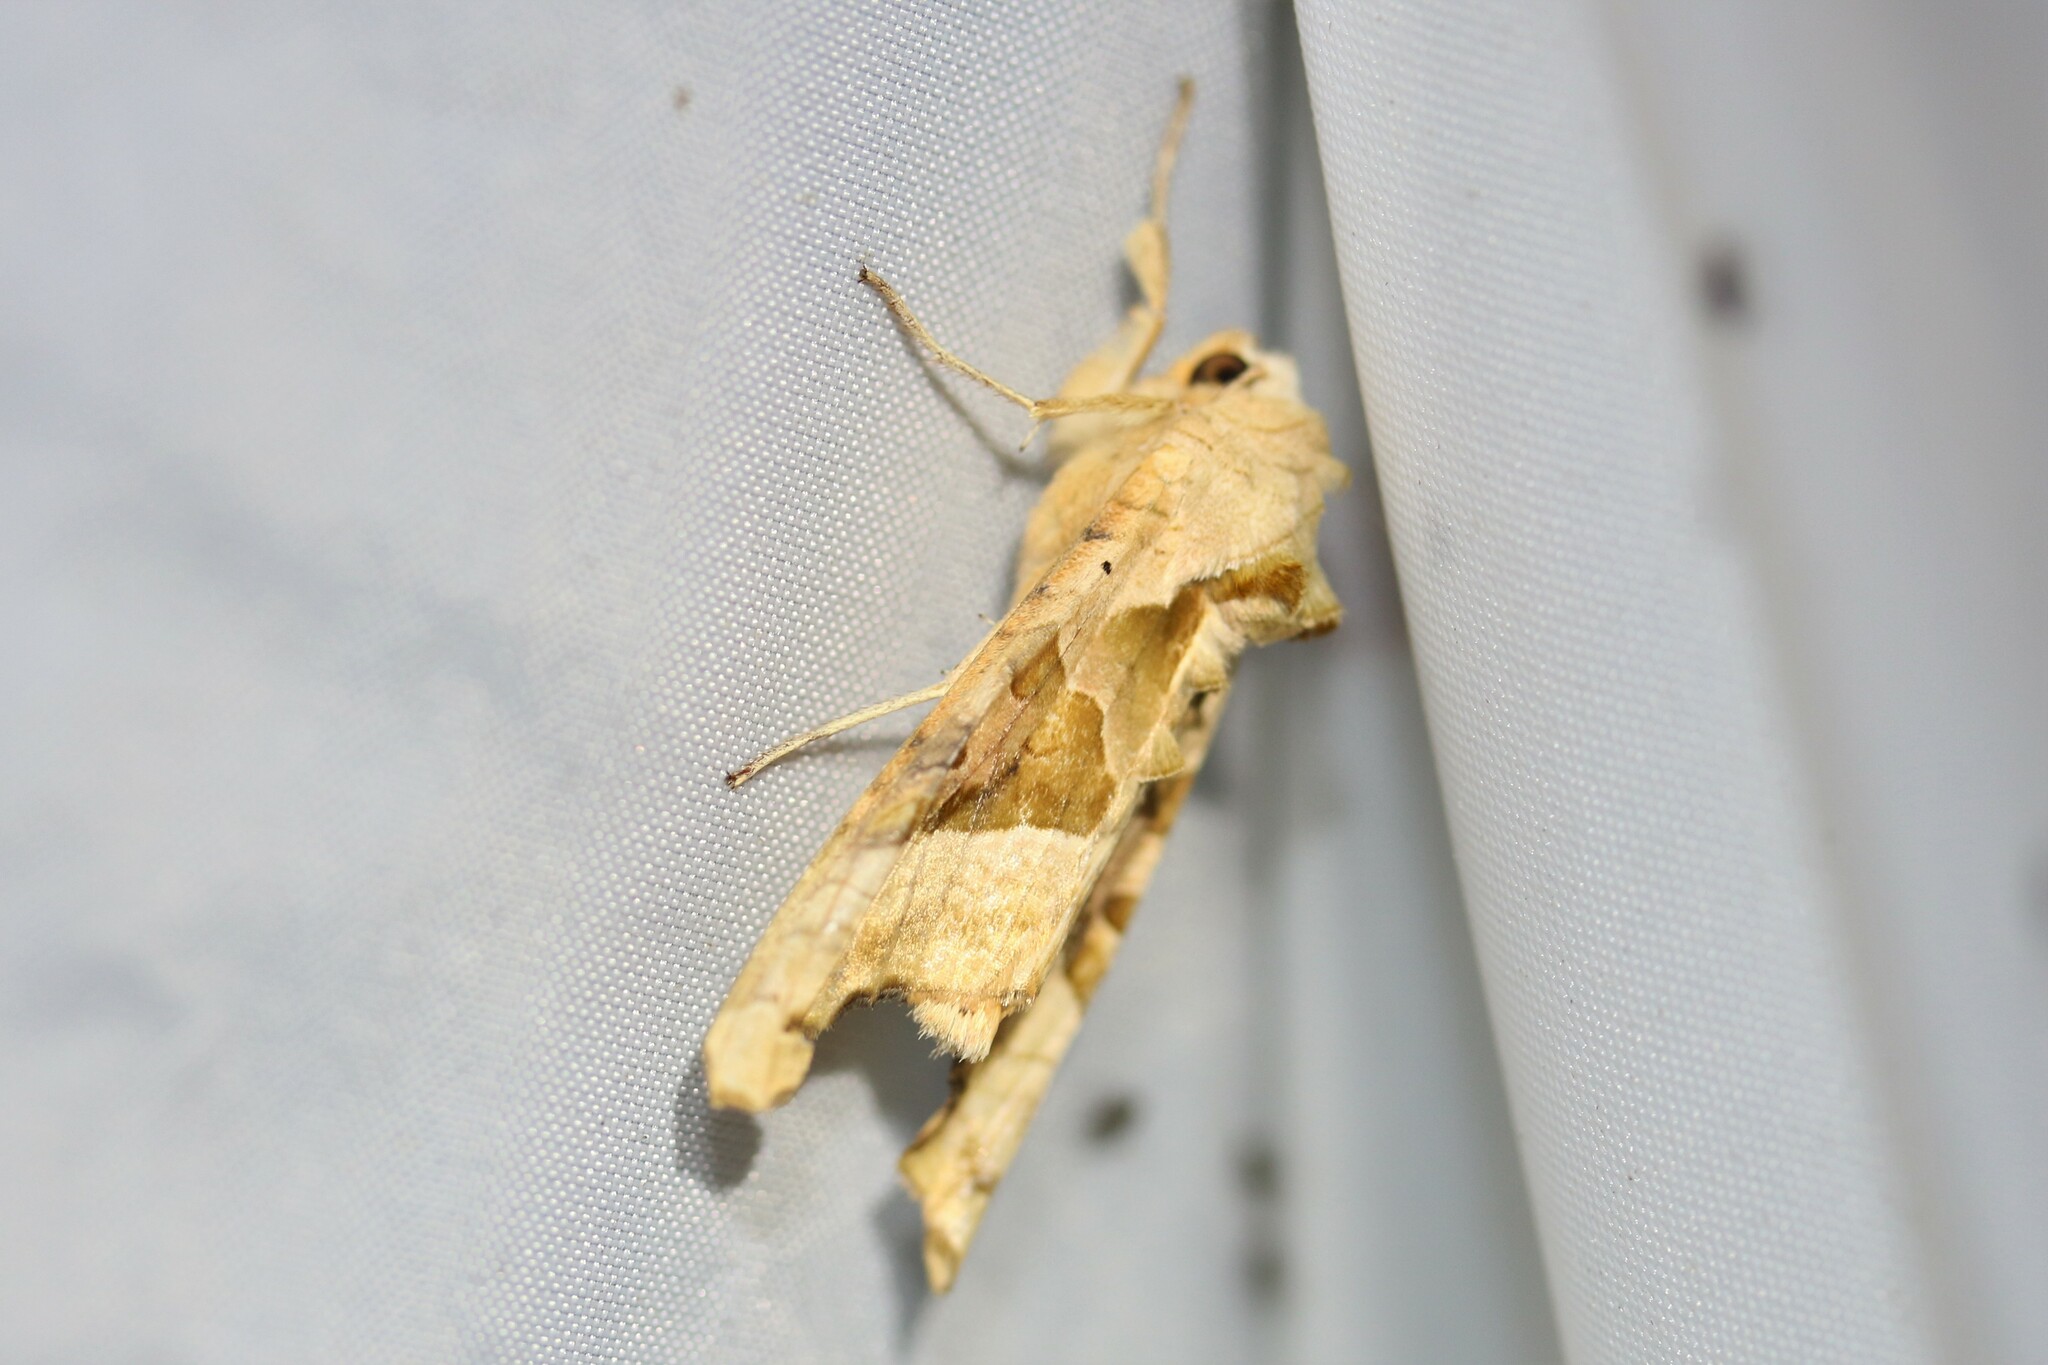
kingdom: Animalia
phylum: Arthropoda
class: Insecta
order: Lepidoptera
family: Noctuidae
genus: Phlogophora
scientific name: Phlogophora meticulosa
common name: Angle shades
